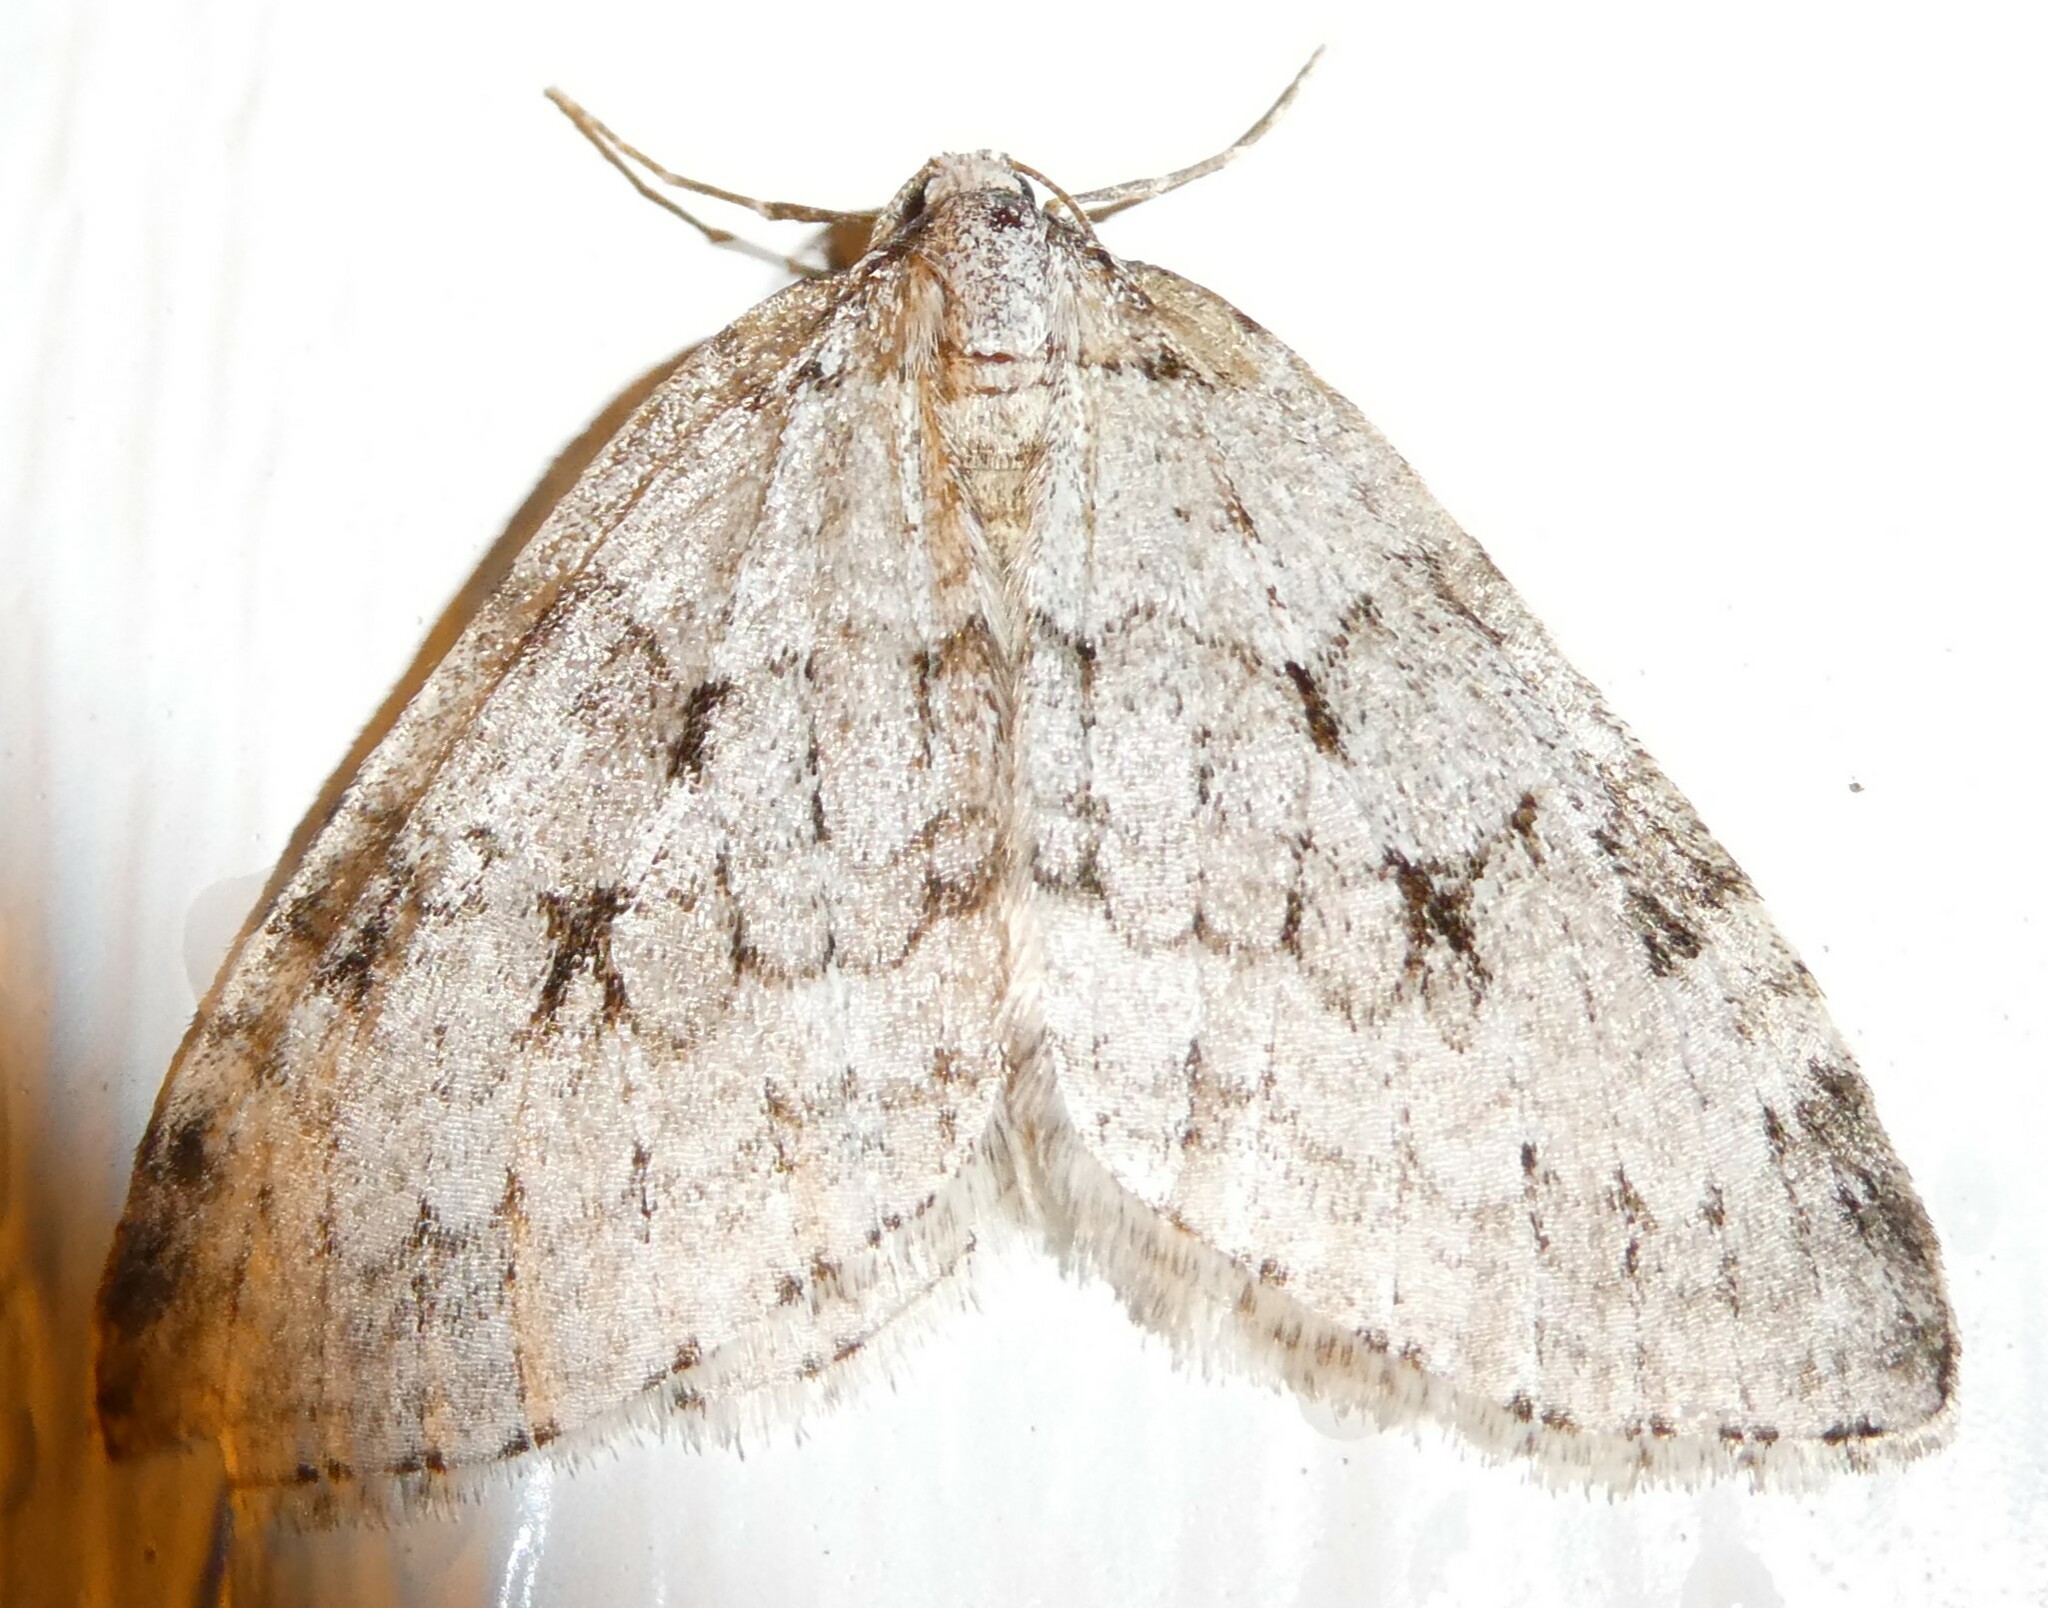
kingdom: Animalia
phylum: Arthropoda
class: Insecta
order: Lepidoptera
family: Geometridae
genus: Epirrita
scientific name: Epirrita autumnata
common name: Autumnal moth
